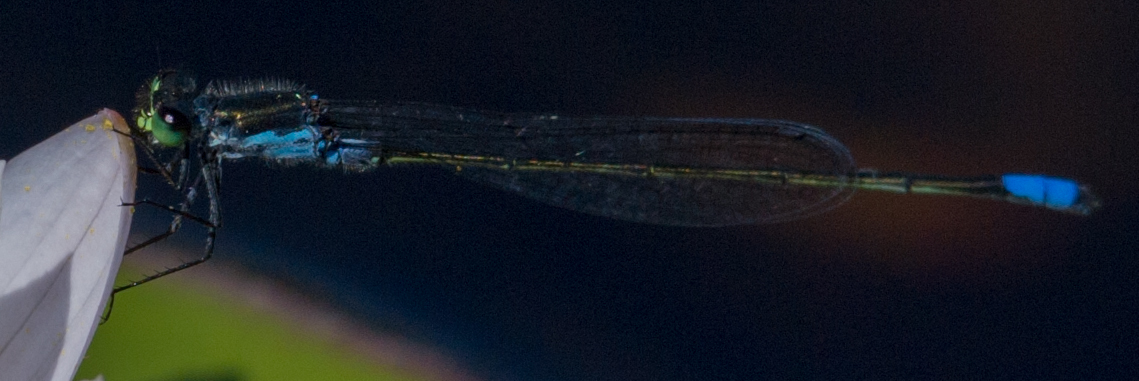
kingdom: Animalia
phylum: Arthropoda
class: Insecta
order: Odonata
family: Coenagrionidae
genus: Pseudagrion
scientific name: Pseudagrion deningi
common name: Dening's sprite
